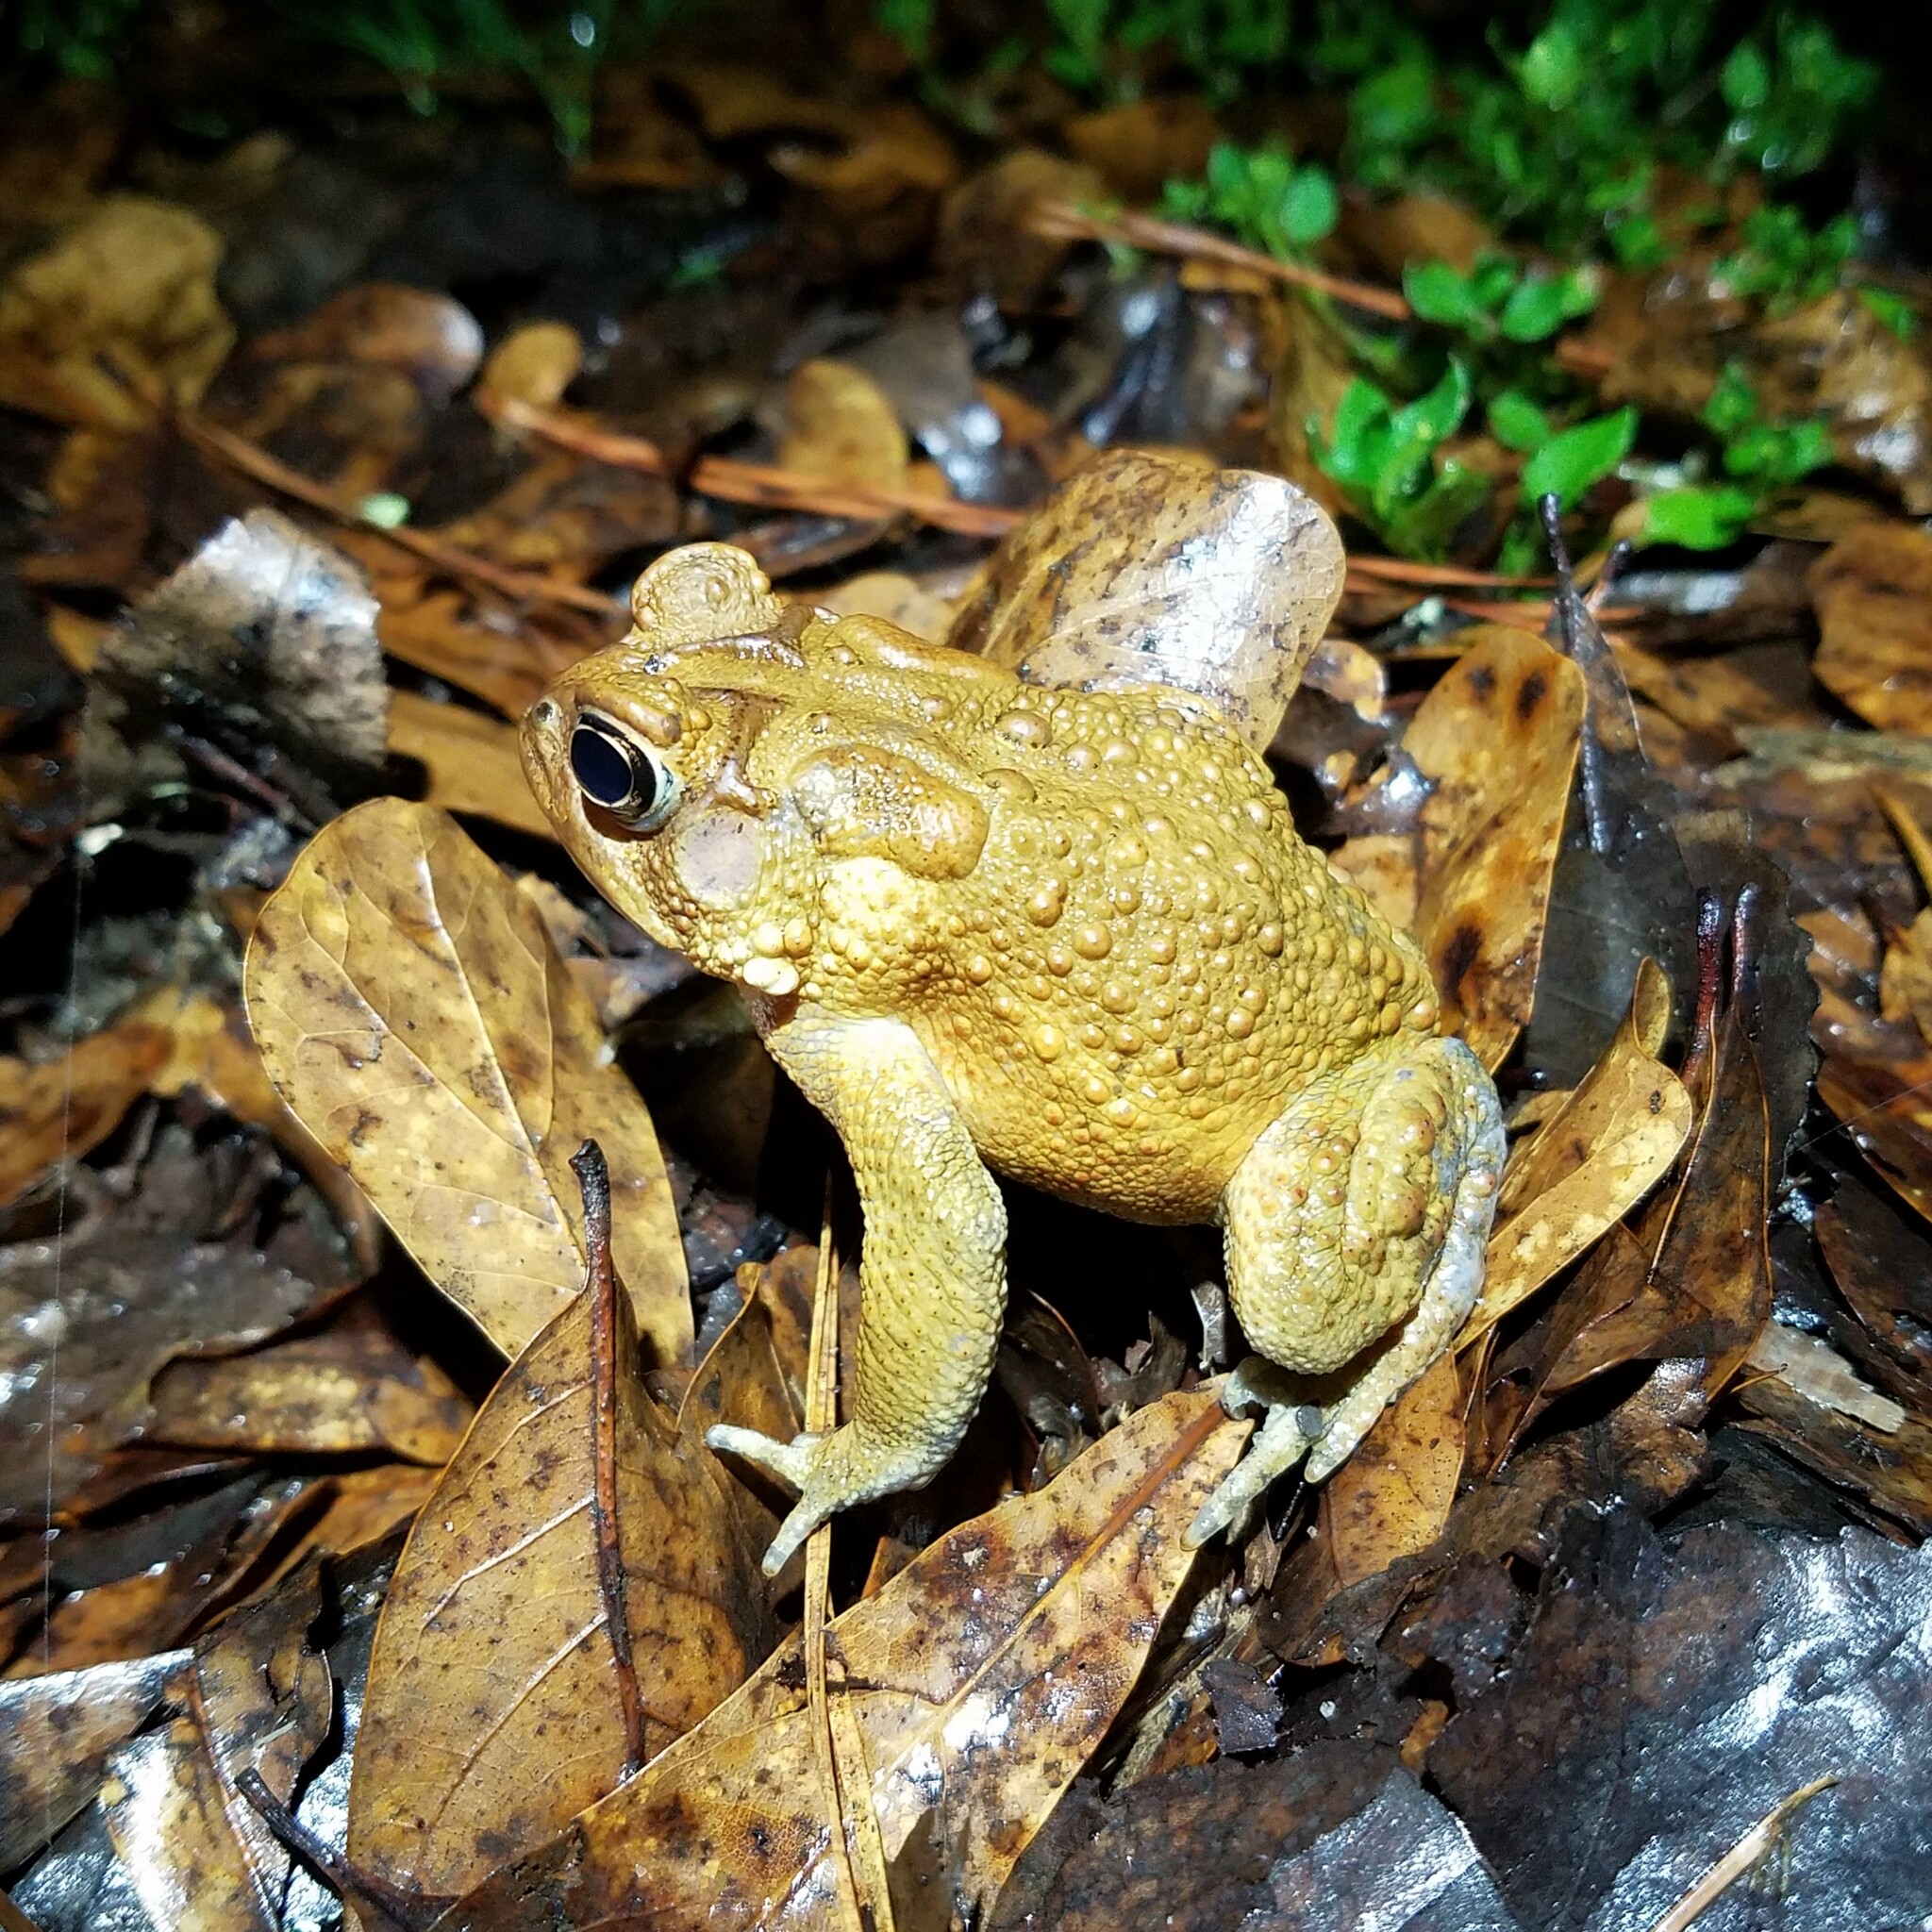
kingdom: Animalia
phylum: Chordata
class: Amphibia
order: Anura
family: Bufonidae
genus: Anaxyrus
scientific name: Anaxyrus americanus
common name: American toad
